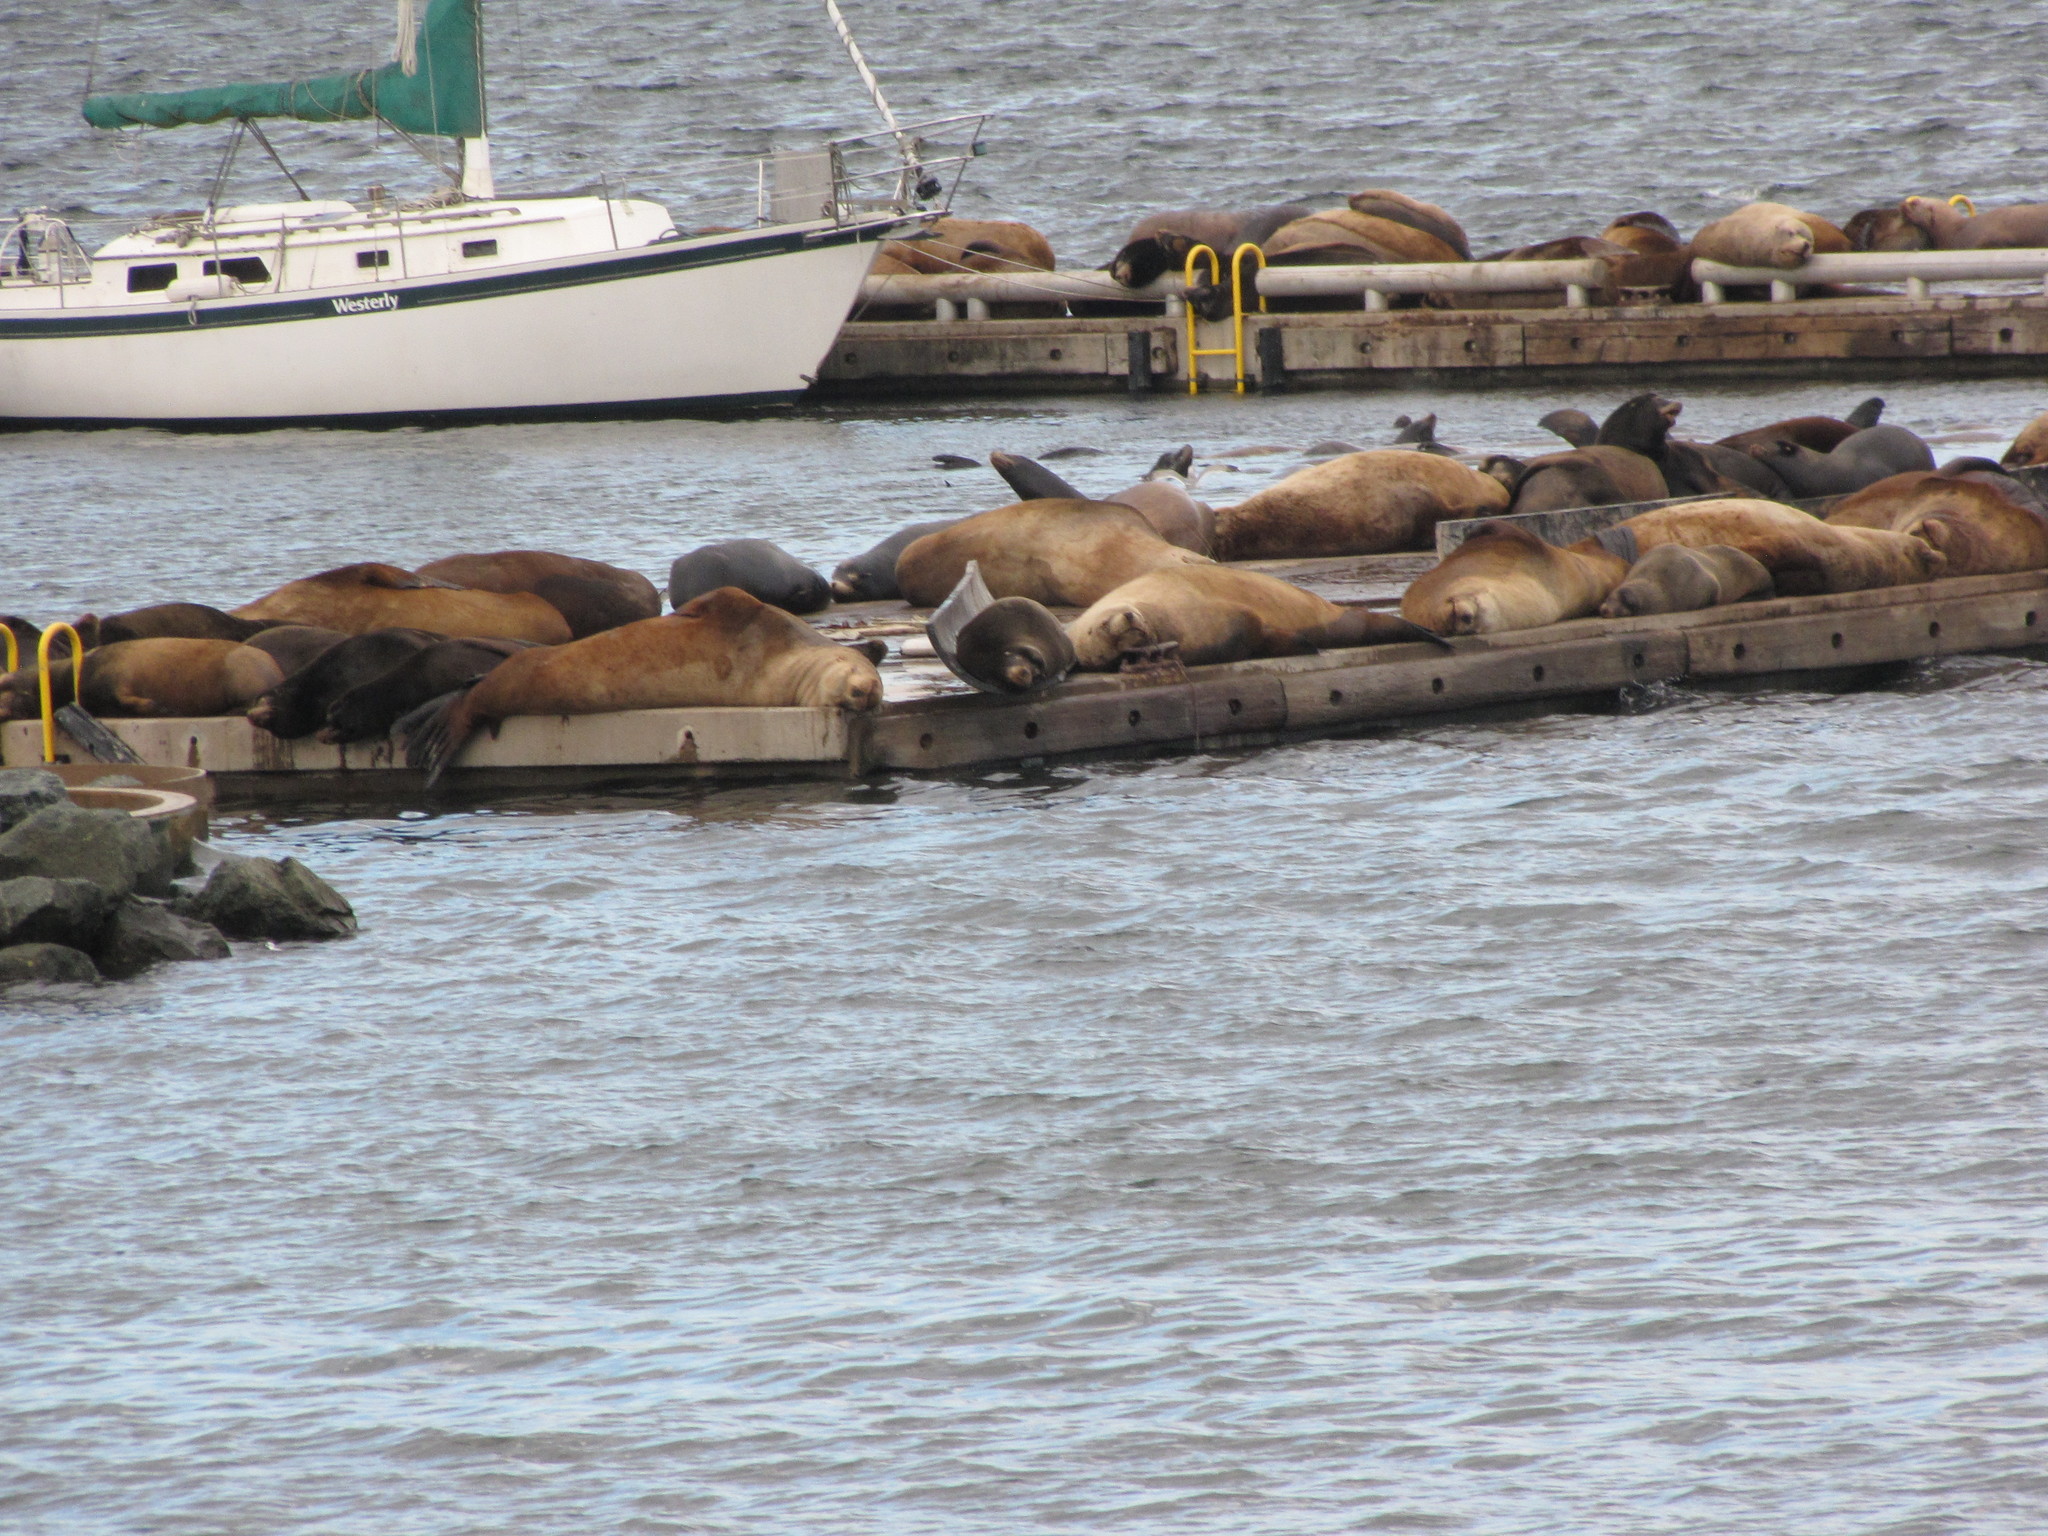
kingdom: Animalia
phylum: Chordata
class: Mammalia
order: Carnivora
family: Otariidae
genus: Zalophus
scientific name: Zalophus californianus
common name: California sea lion
